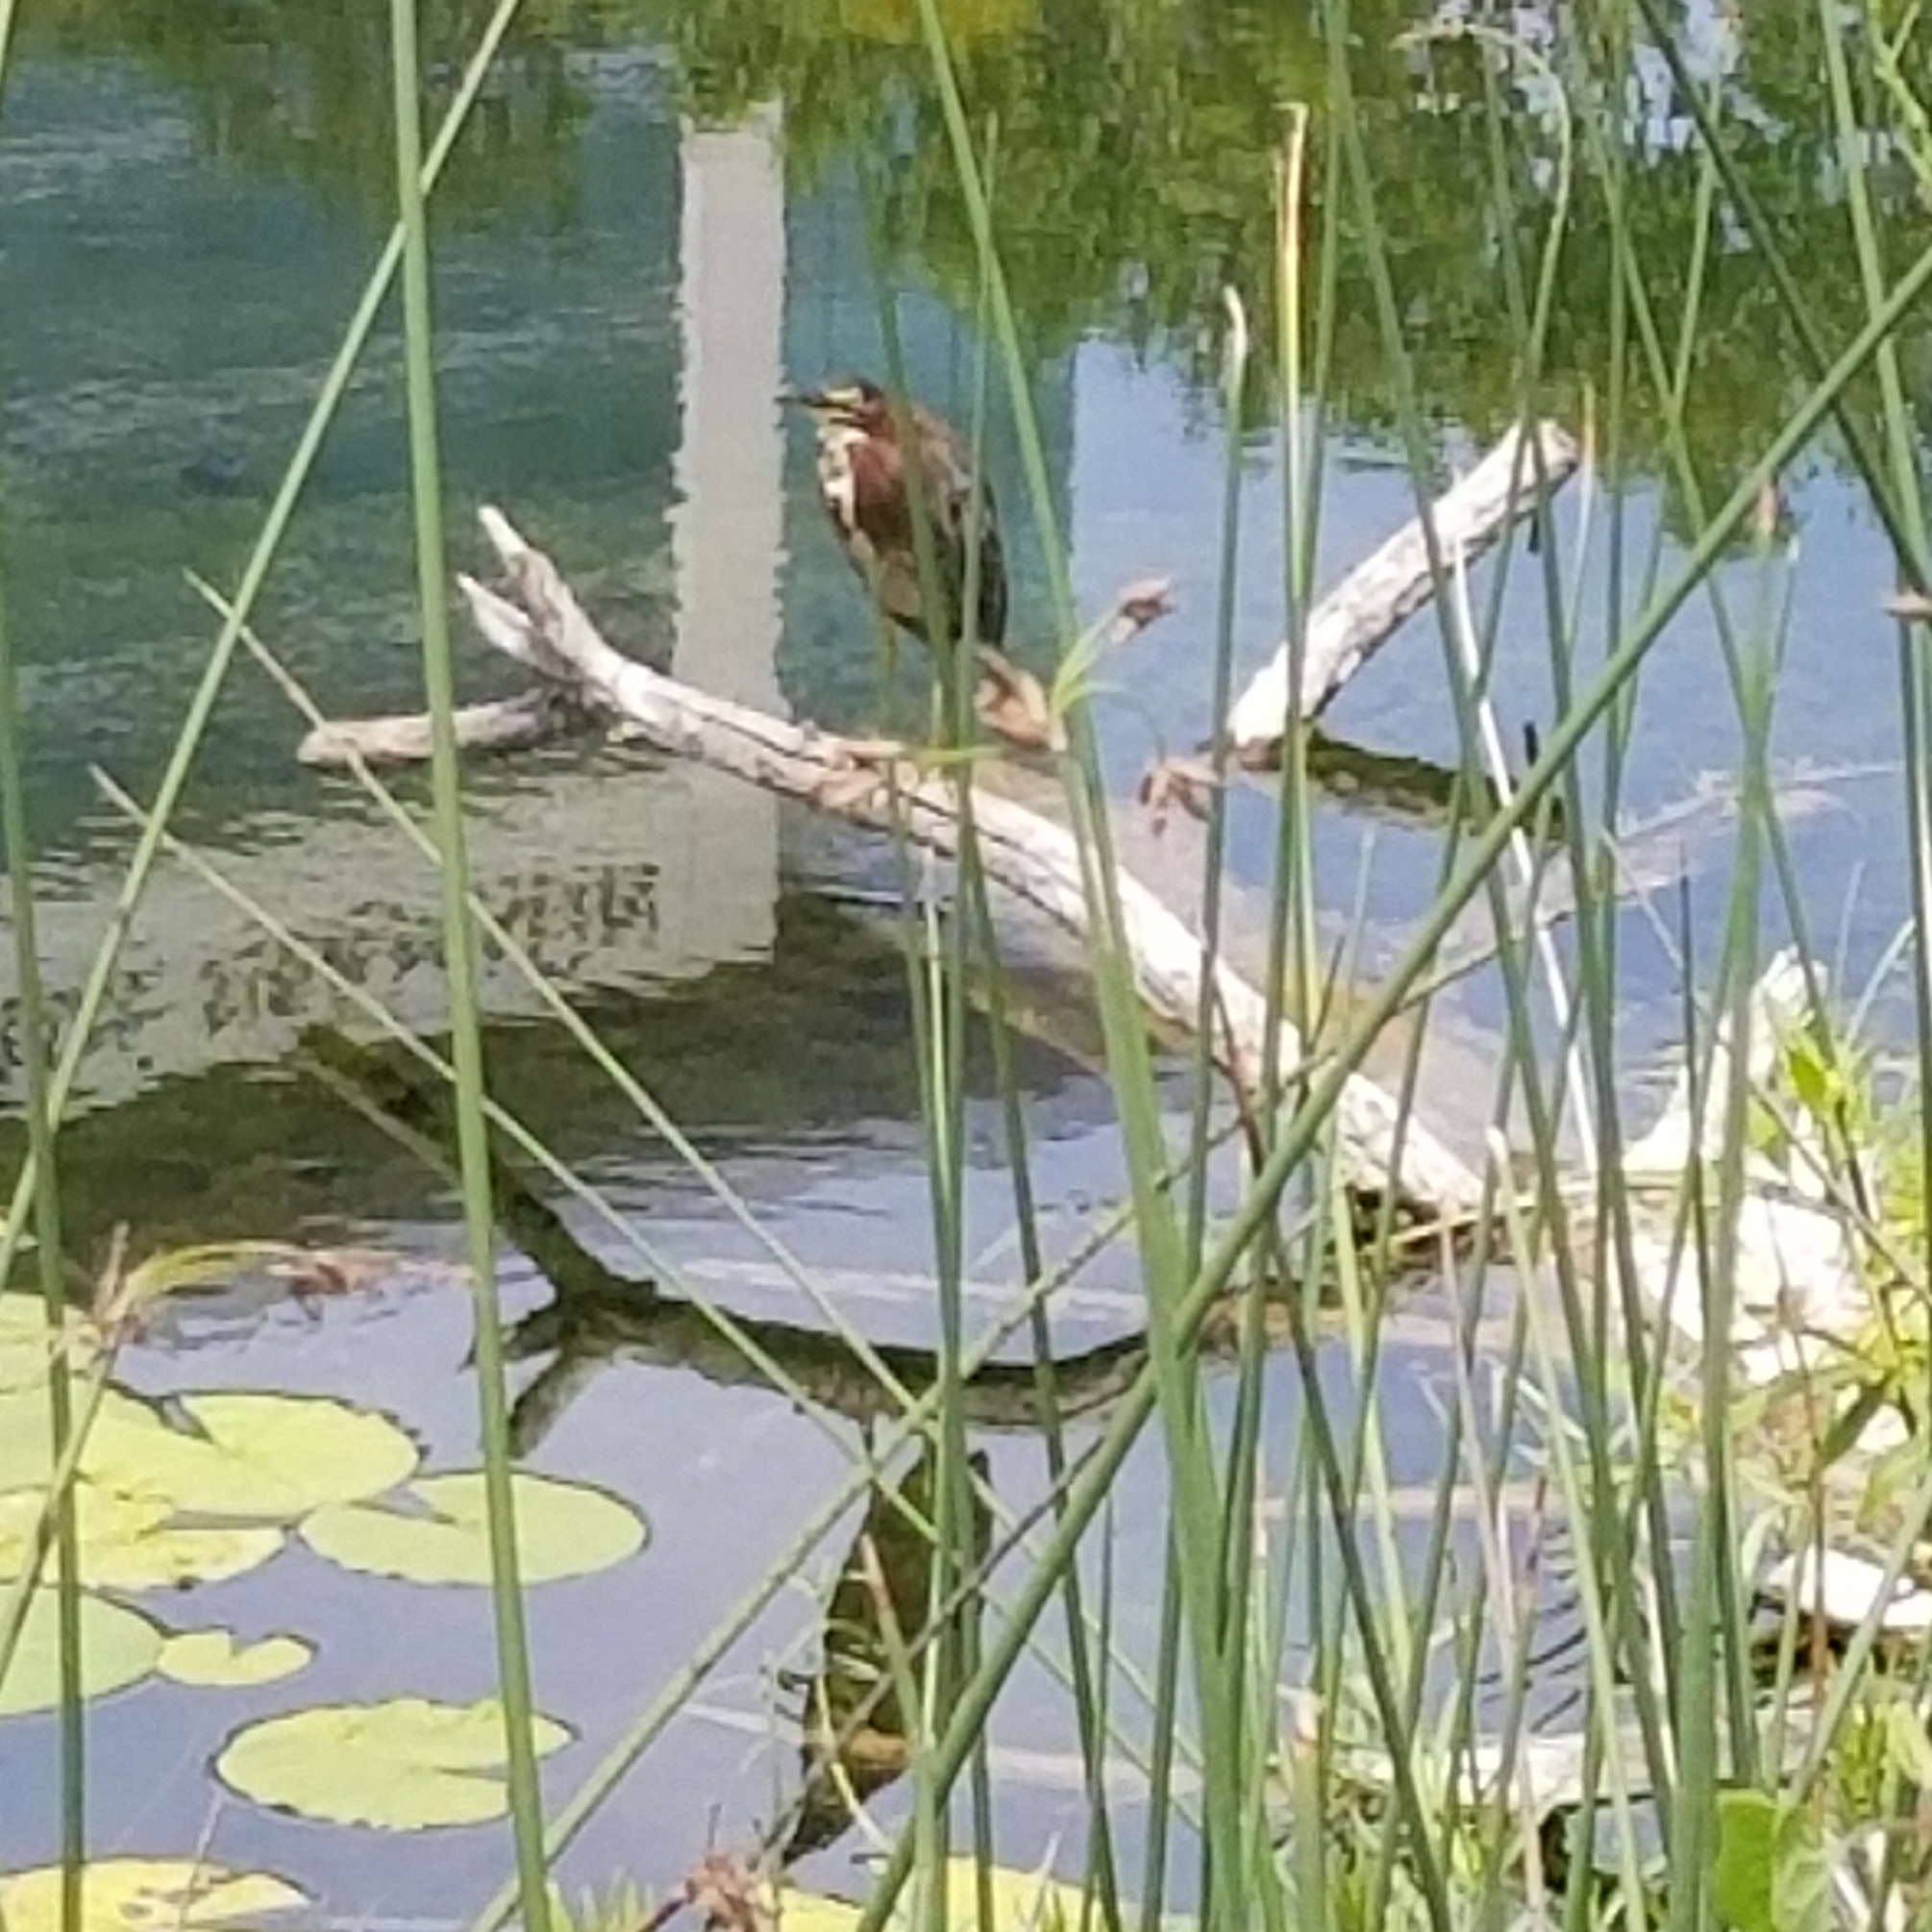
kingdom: Animalia
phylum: Chordata
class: Aves
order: Pelecaniformes
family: Ardeidae
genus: Butorides
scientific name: Butorides virescens
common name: Green heron
